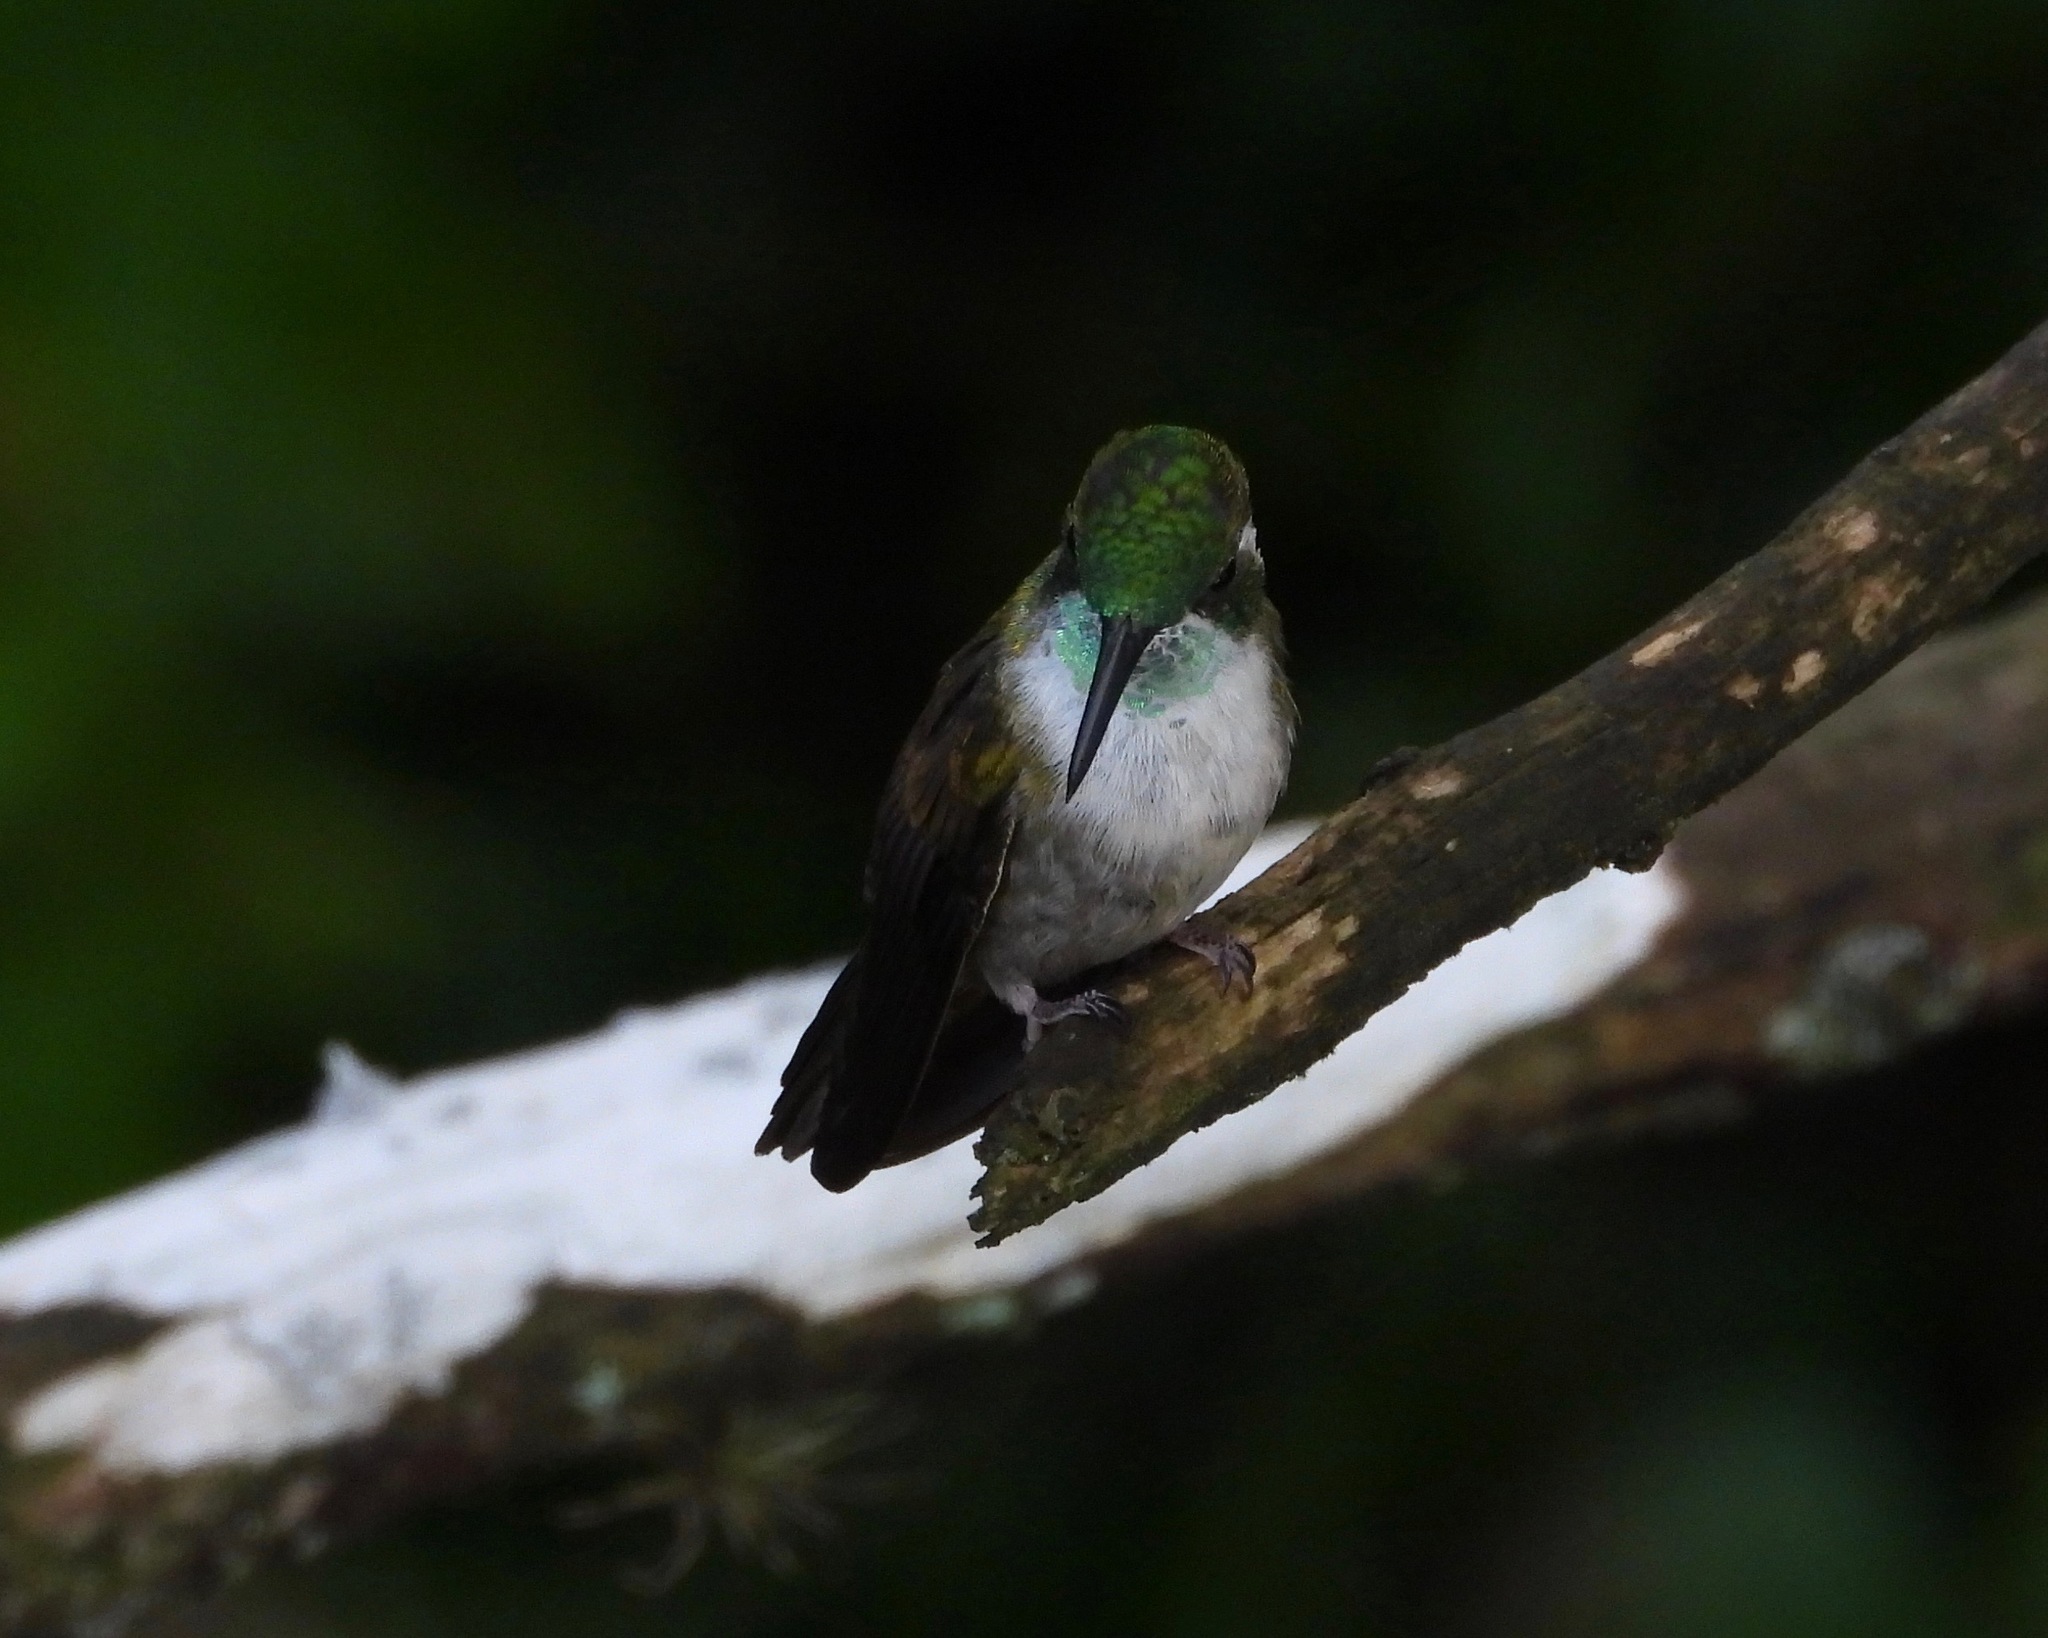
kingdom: Animalia
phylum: Chordata
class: Aves
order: Apodiformes
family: Trochilidae
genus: Lampornis
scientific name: Lampornis viridipallens
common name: Green-throated mountain-gem
